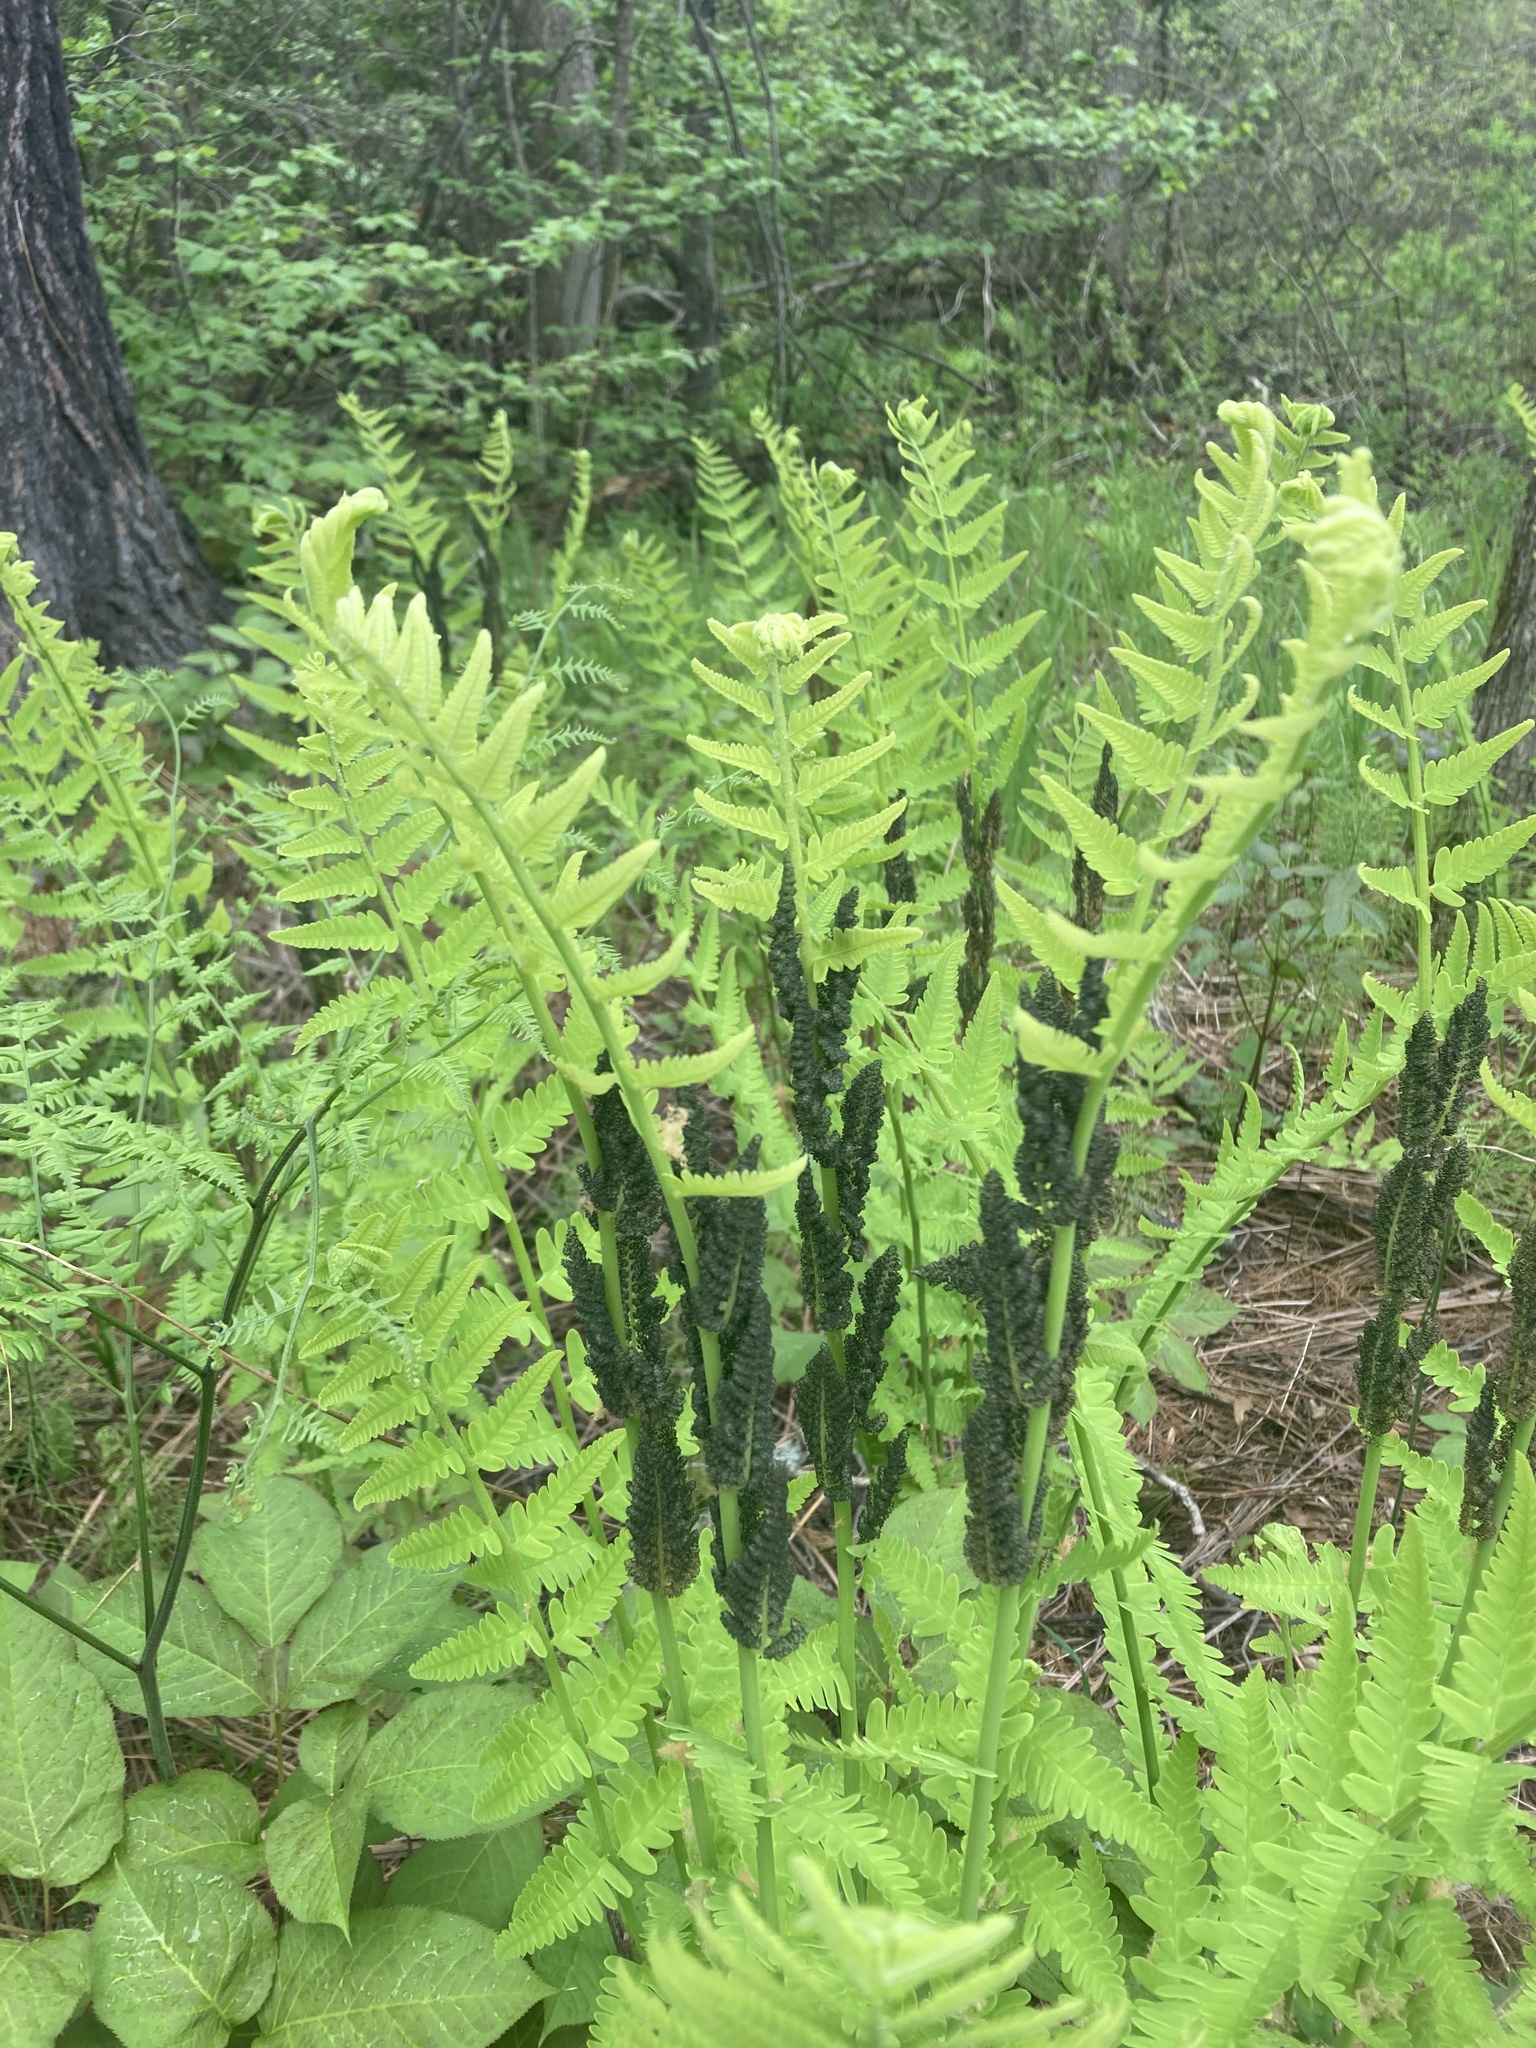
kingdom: Plantae
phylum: Tracheophyta
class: Polypodiopsida
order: Osmundales
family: Osmundaceae
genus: Claytosmunda
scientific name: Claytosmunda claytoniana
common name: Clayton's fern
